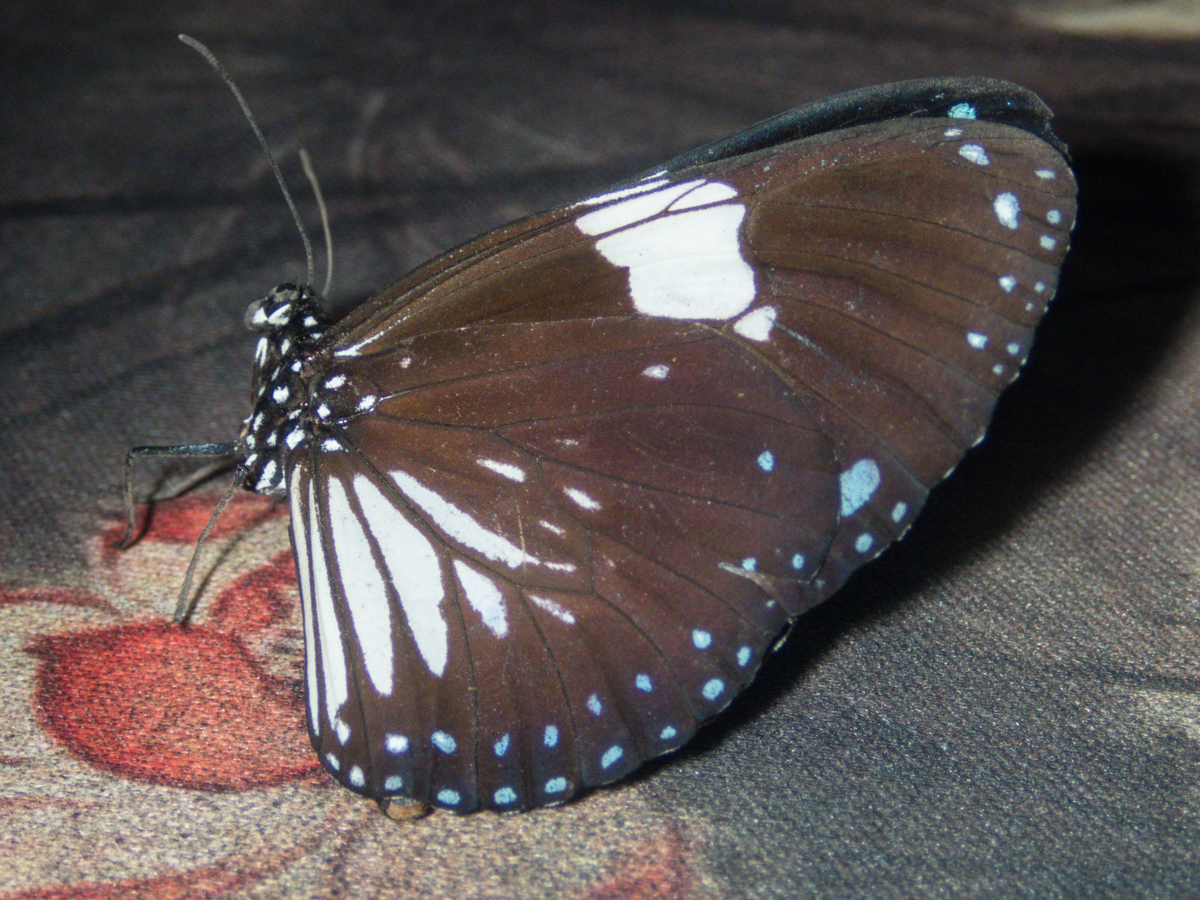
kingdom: Animalia
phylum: Arthropoda
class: Insecta
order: Lepidoptera
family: Nymphalidae
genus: Euploea
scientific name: Euploea radamanthus
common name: Magpie crow butterfly
